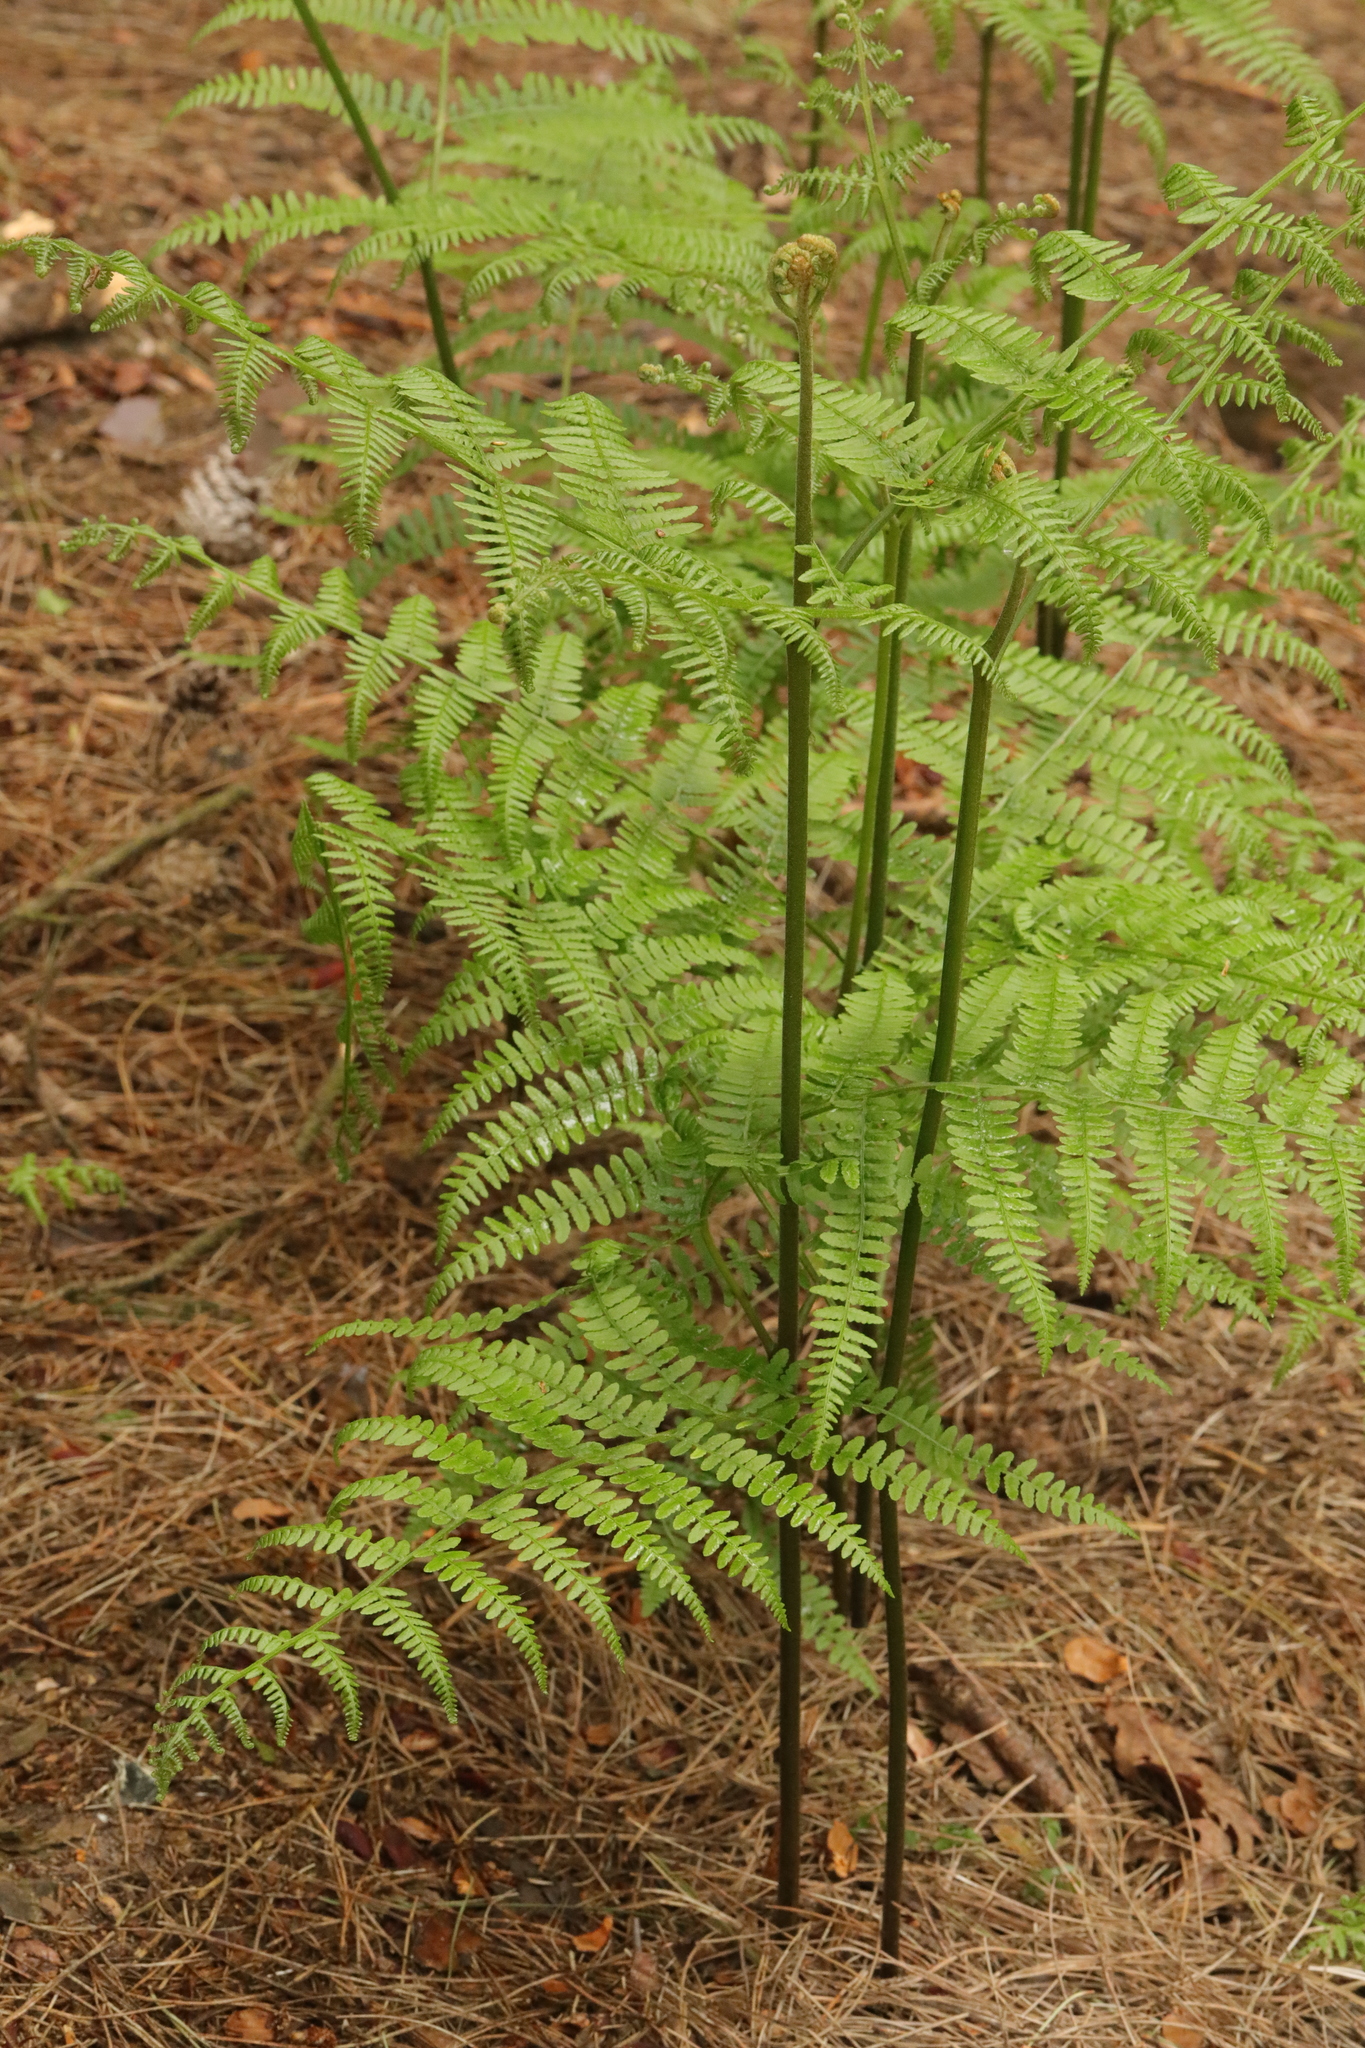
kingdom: Plantae
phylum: Tracheophyta
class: Polypodiopsida
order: Polypodiales
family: Dennstaedtiaceae
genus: Pteridium
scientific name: Pteridium aquilinum
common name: Bracken
